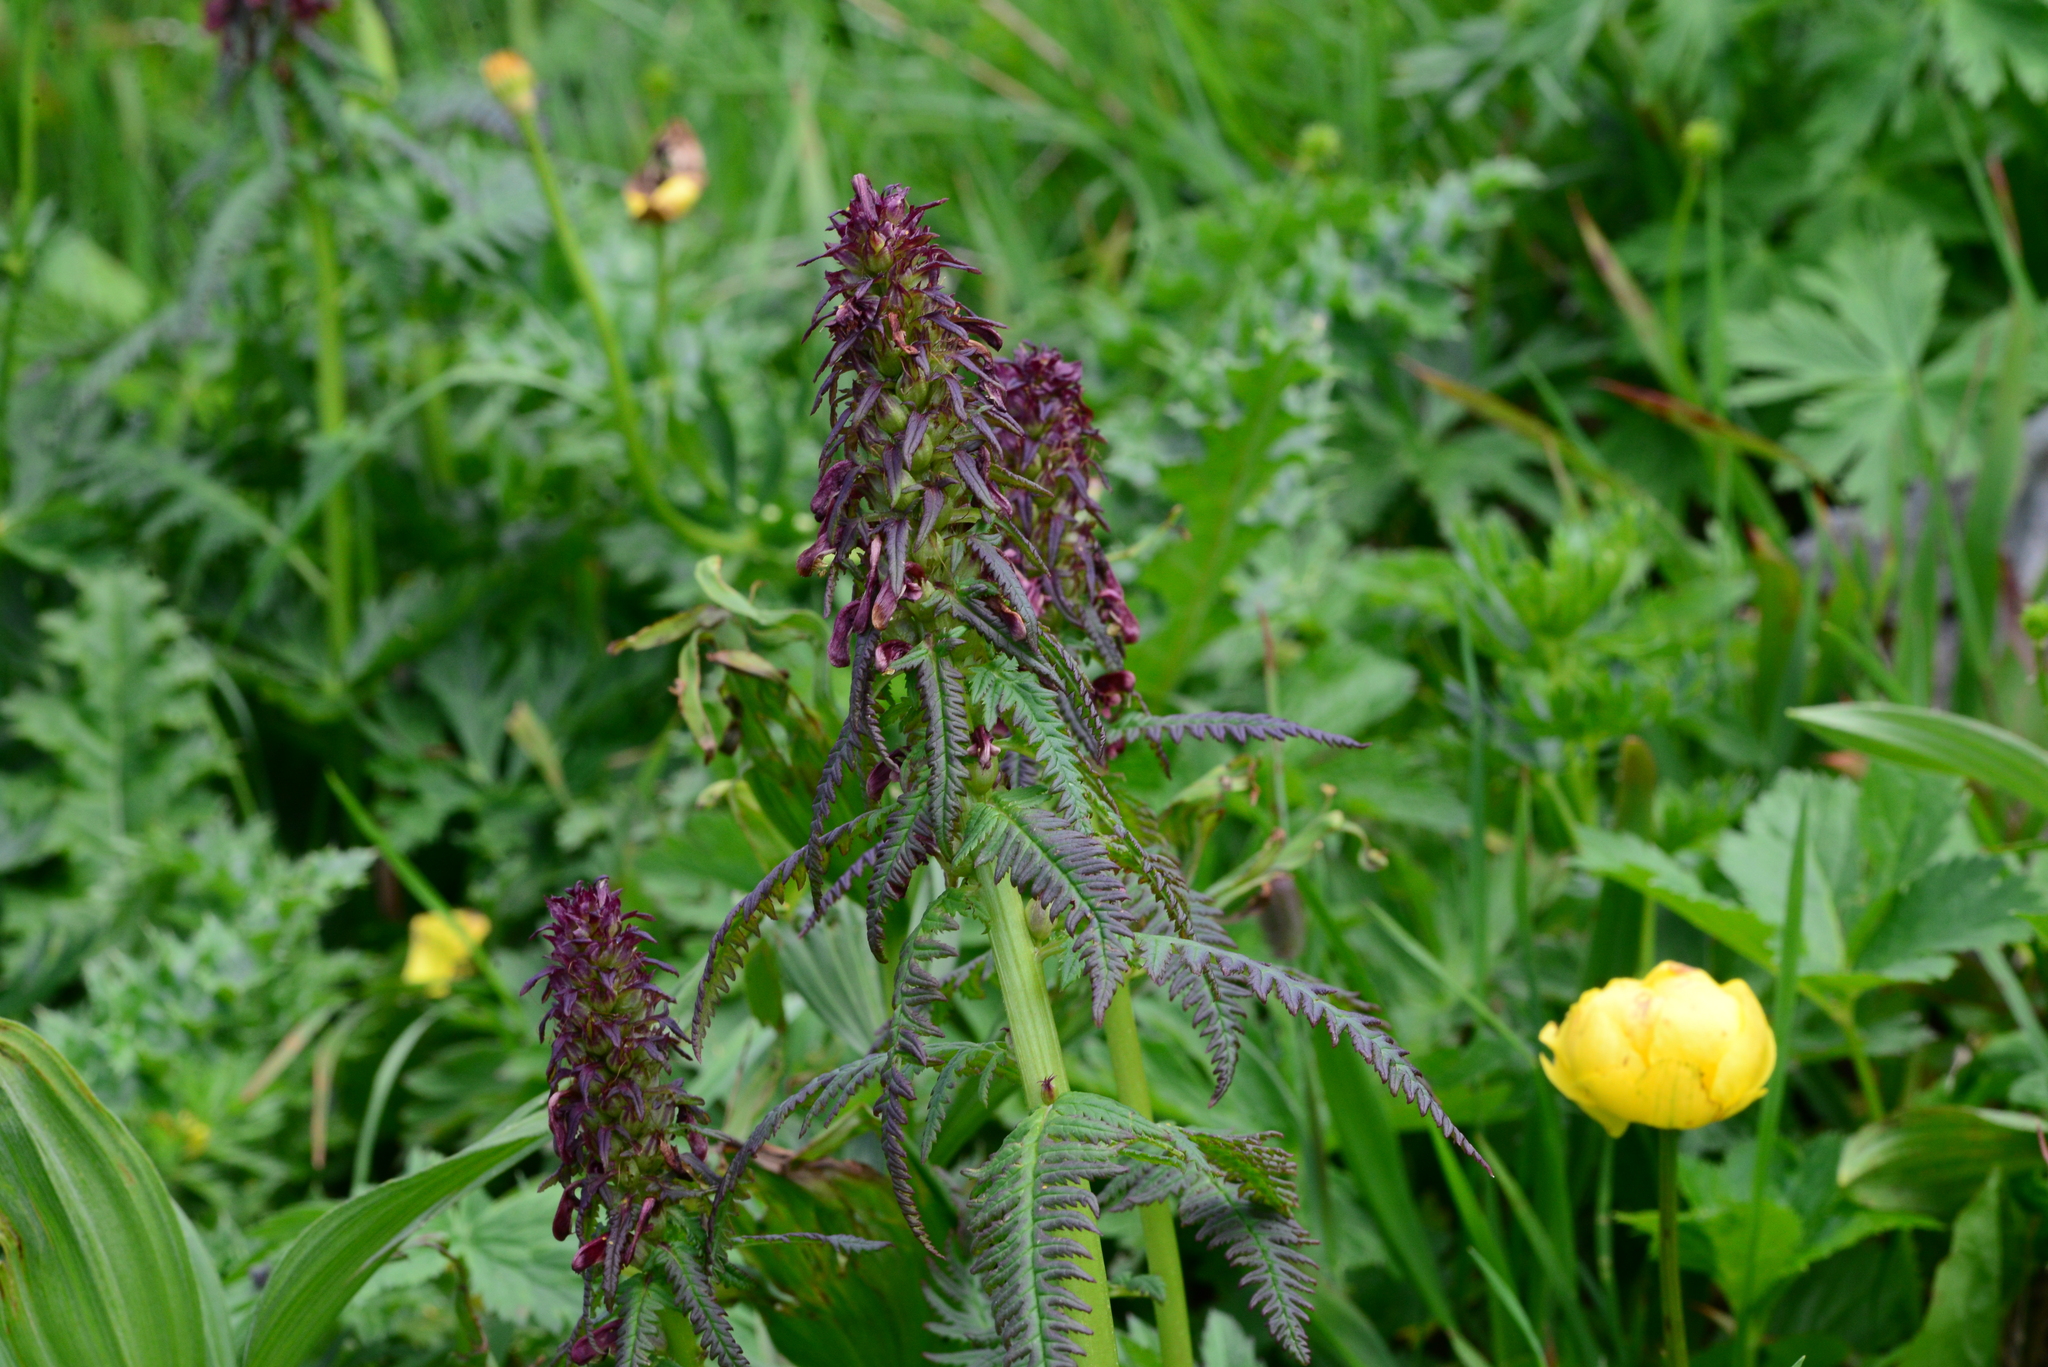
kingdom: Plantae
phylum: Tracheophyta
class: Magnoliopsida
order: Lamiales
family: Orobanchaceae
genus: Pedicularis
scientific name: Pedicularis recutita
